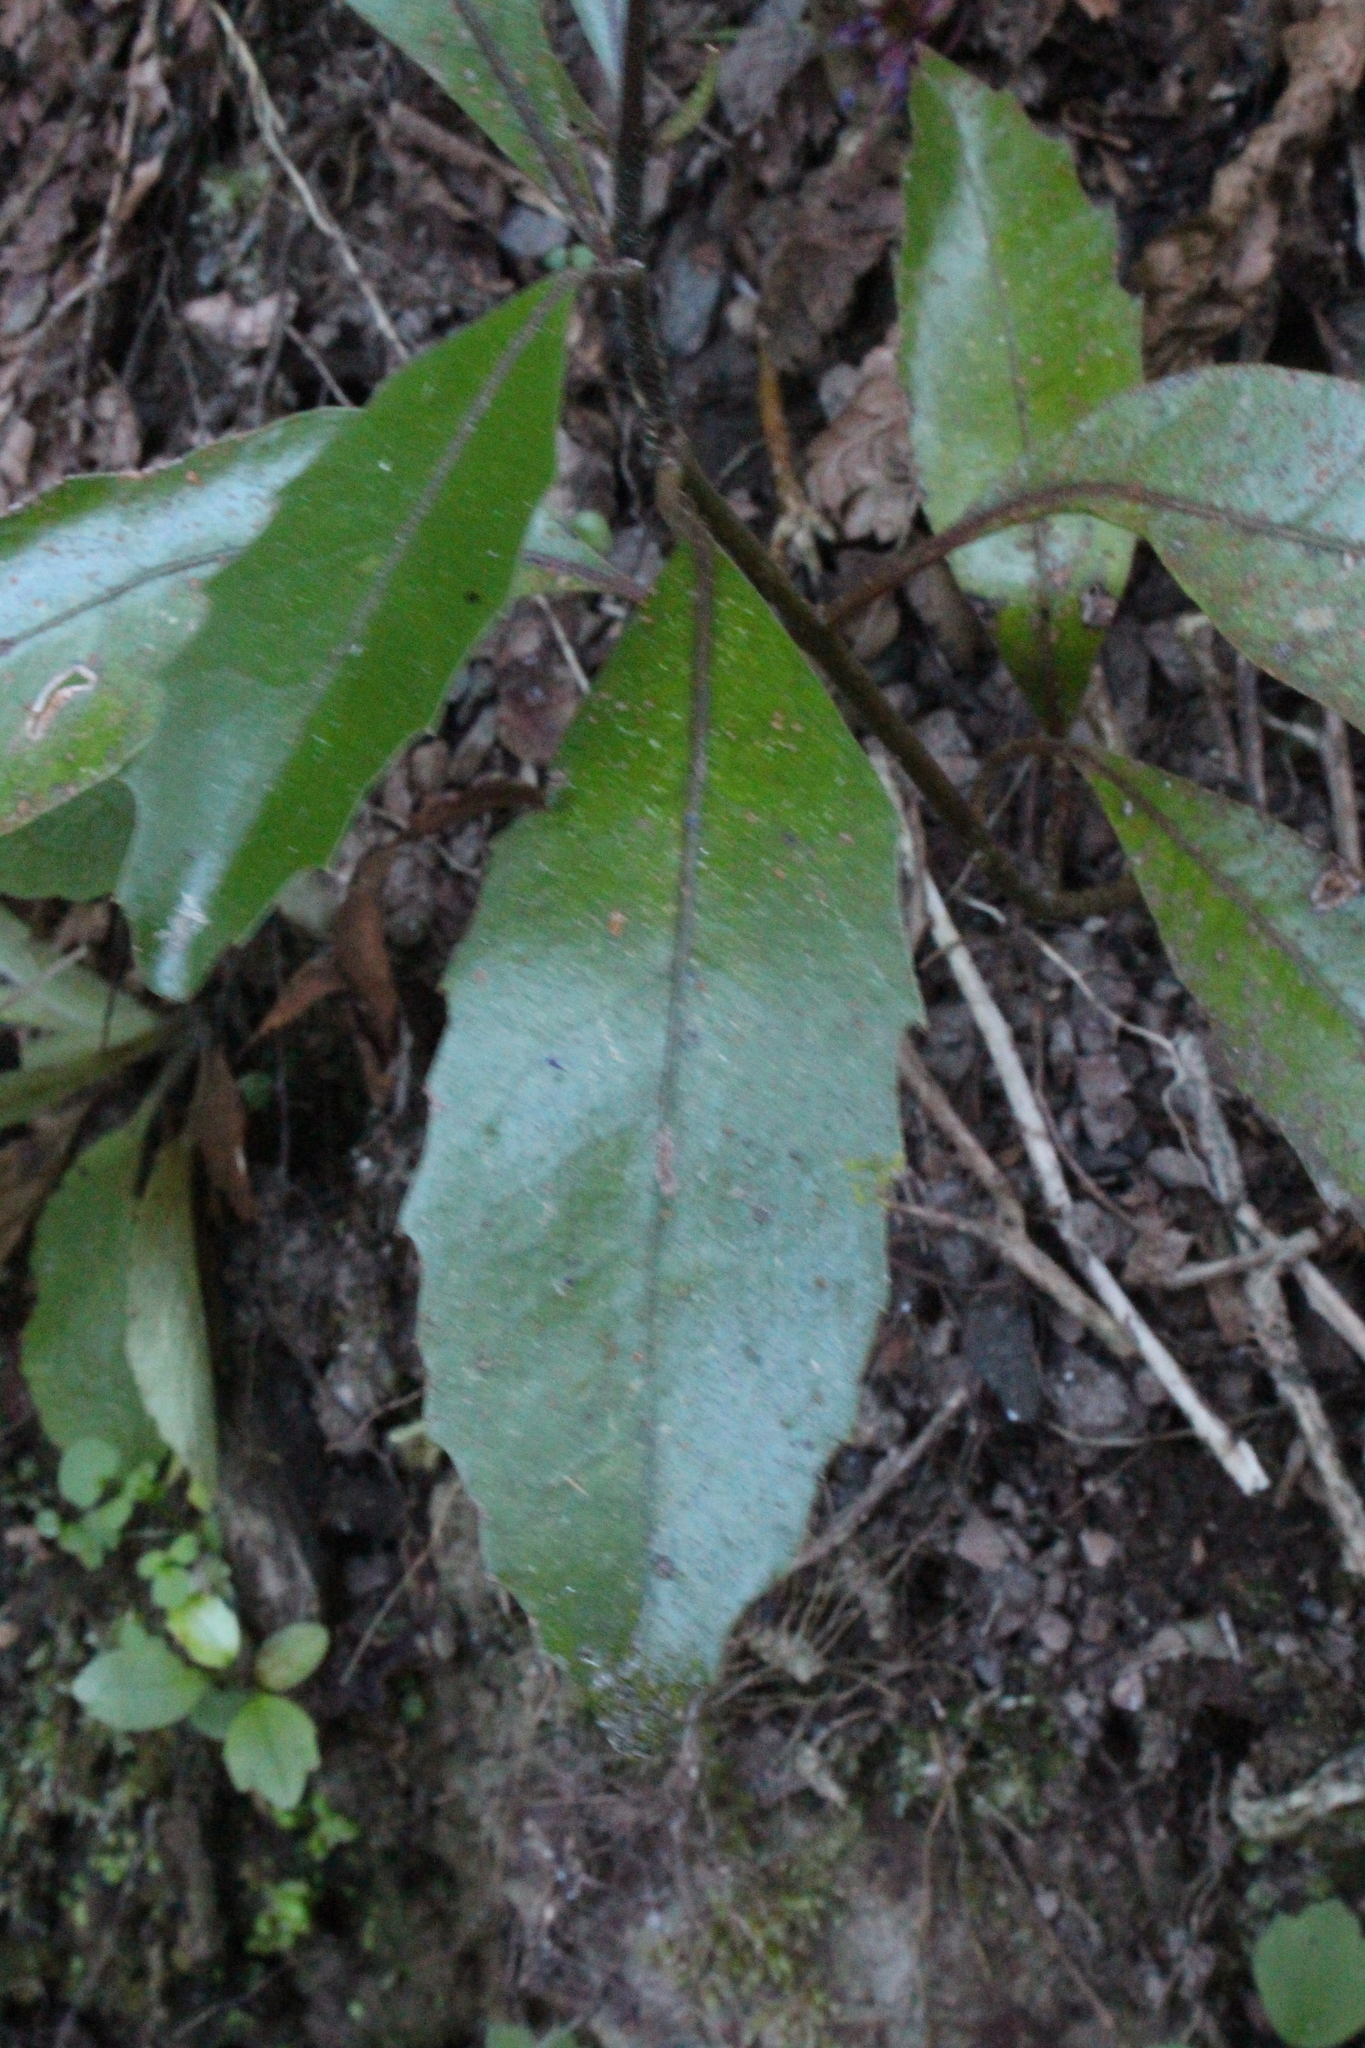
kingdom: Plantae
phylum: Tracheophyta
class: Magnoliopsida
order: Laurales
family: Monimiaceae
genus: Hedycarya
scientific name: Hedycarya arborea
